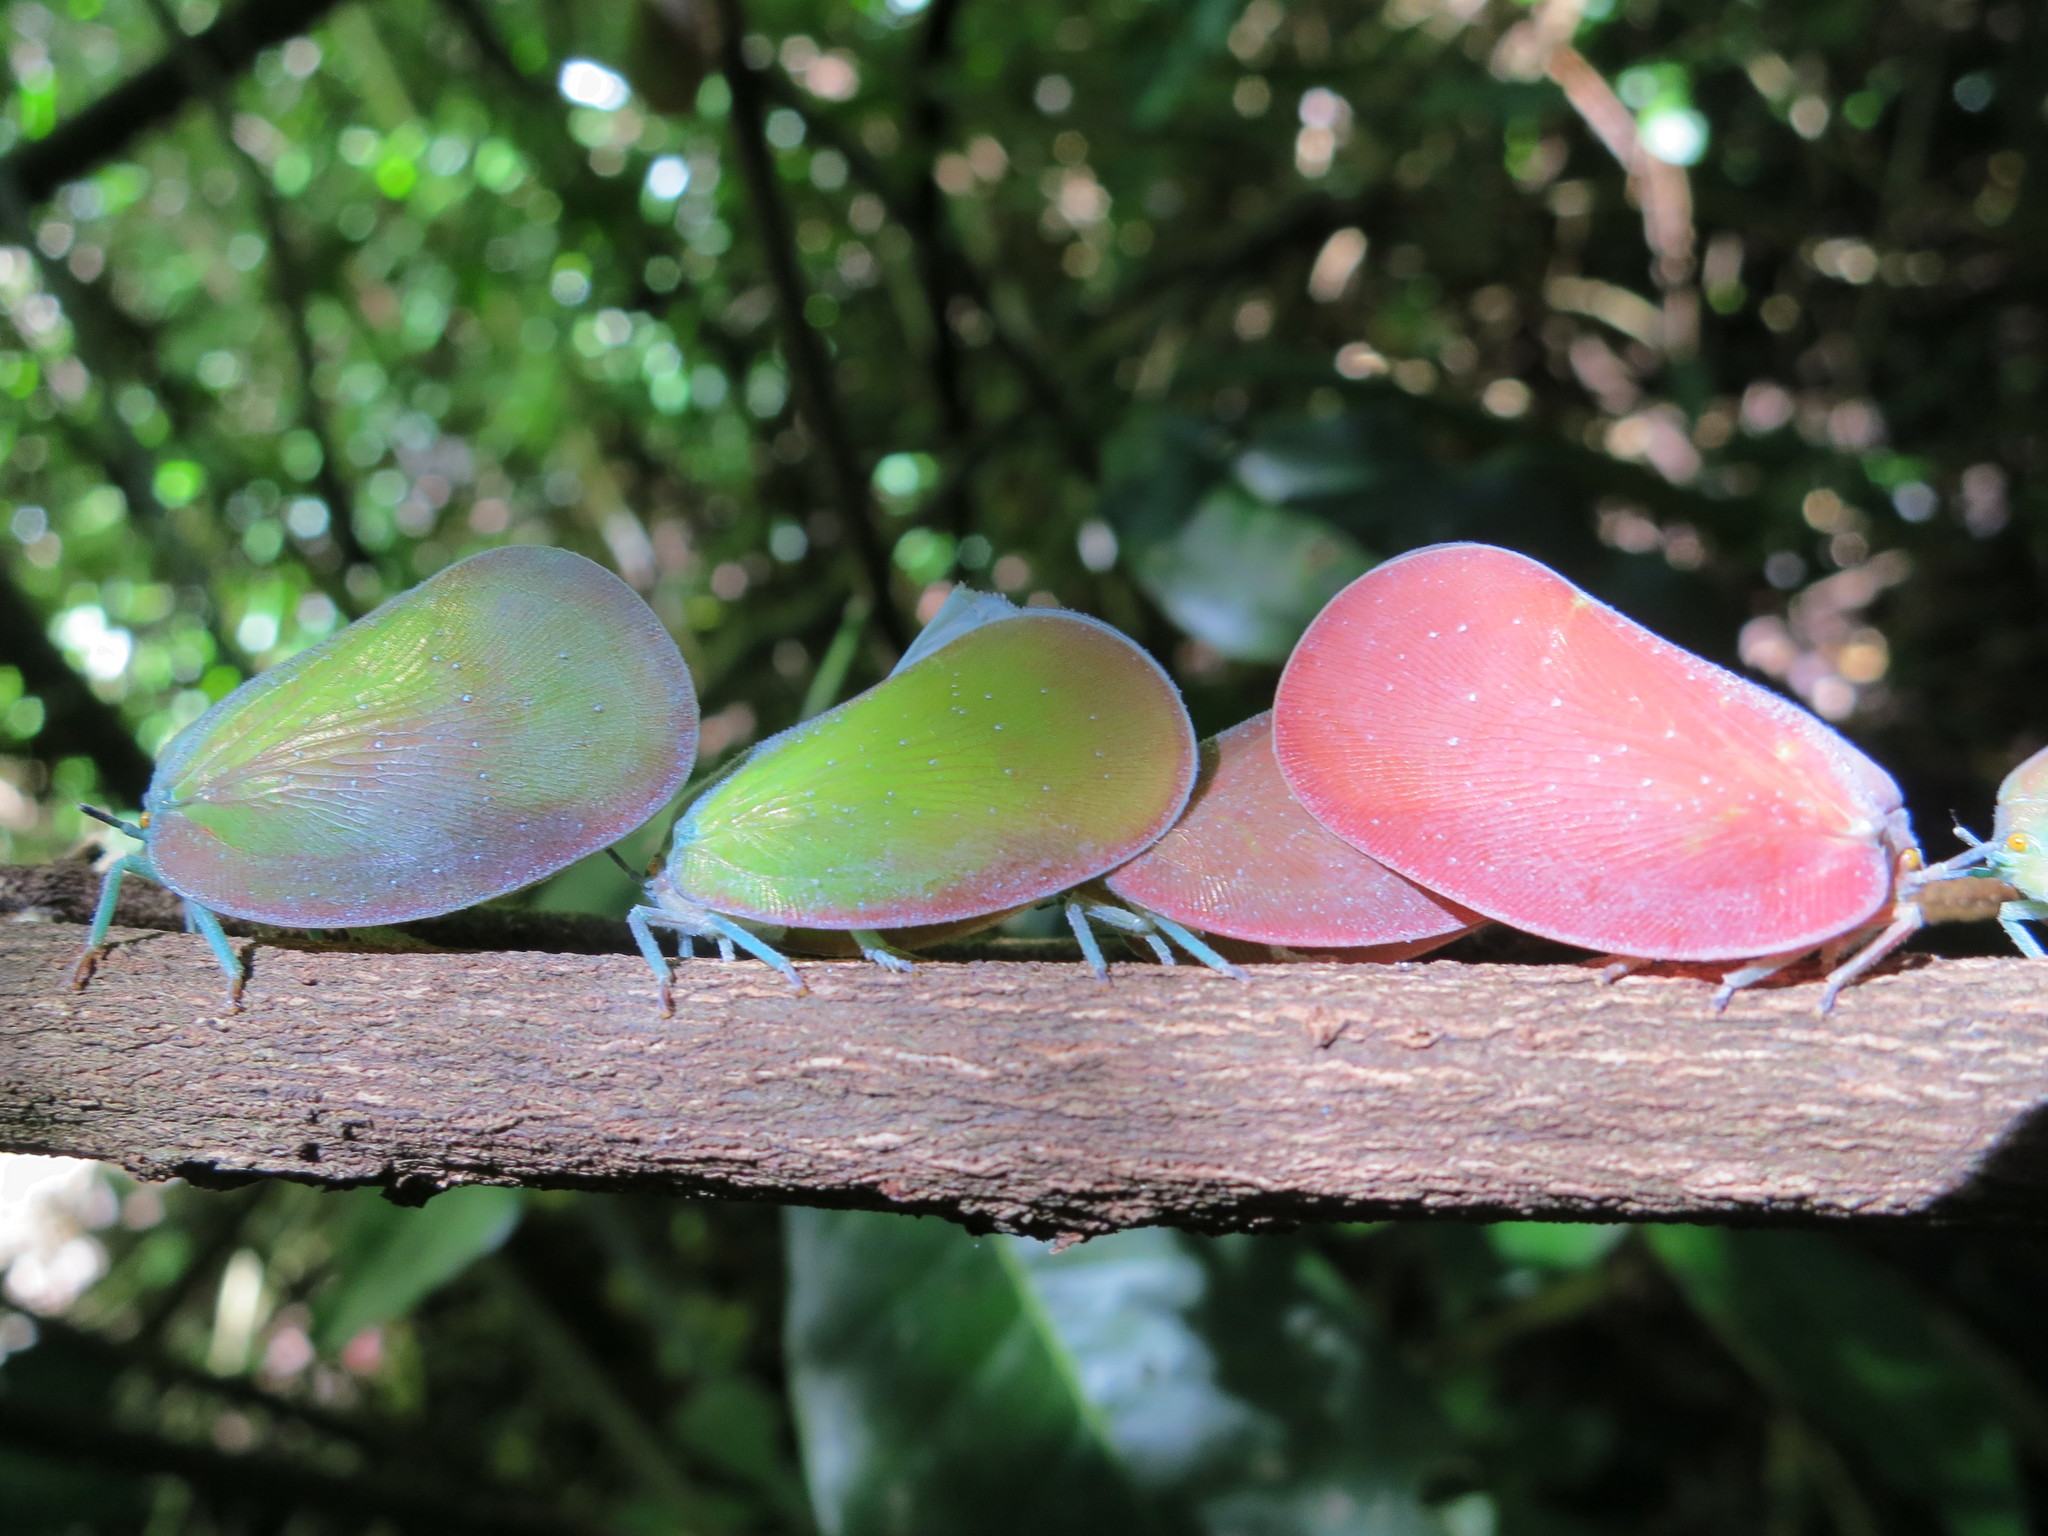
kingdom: Animalia
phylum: Arthropoda
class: Insecta
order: Hemiptera
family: Flatidae
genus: Flatida
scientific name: Flatida rosea
